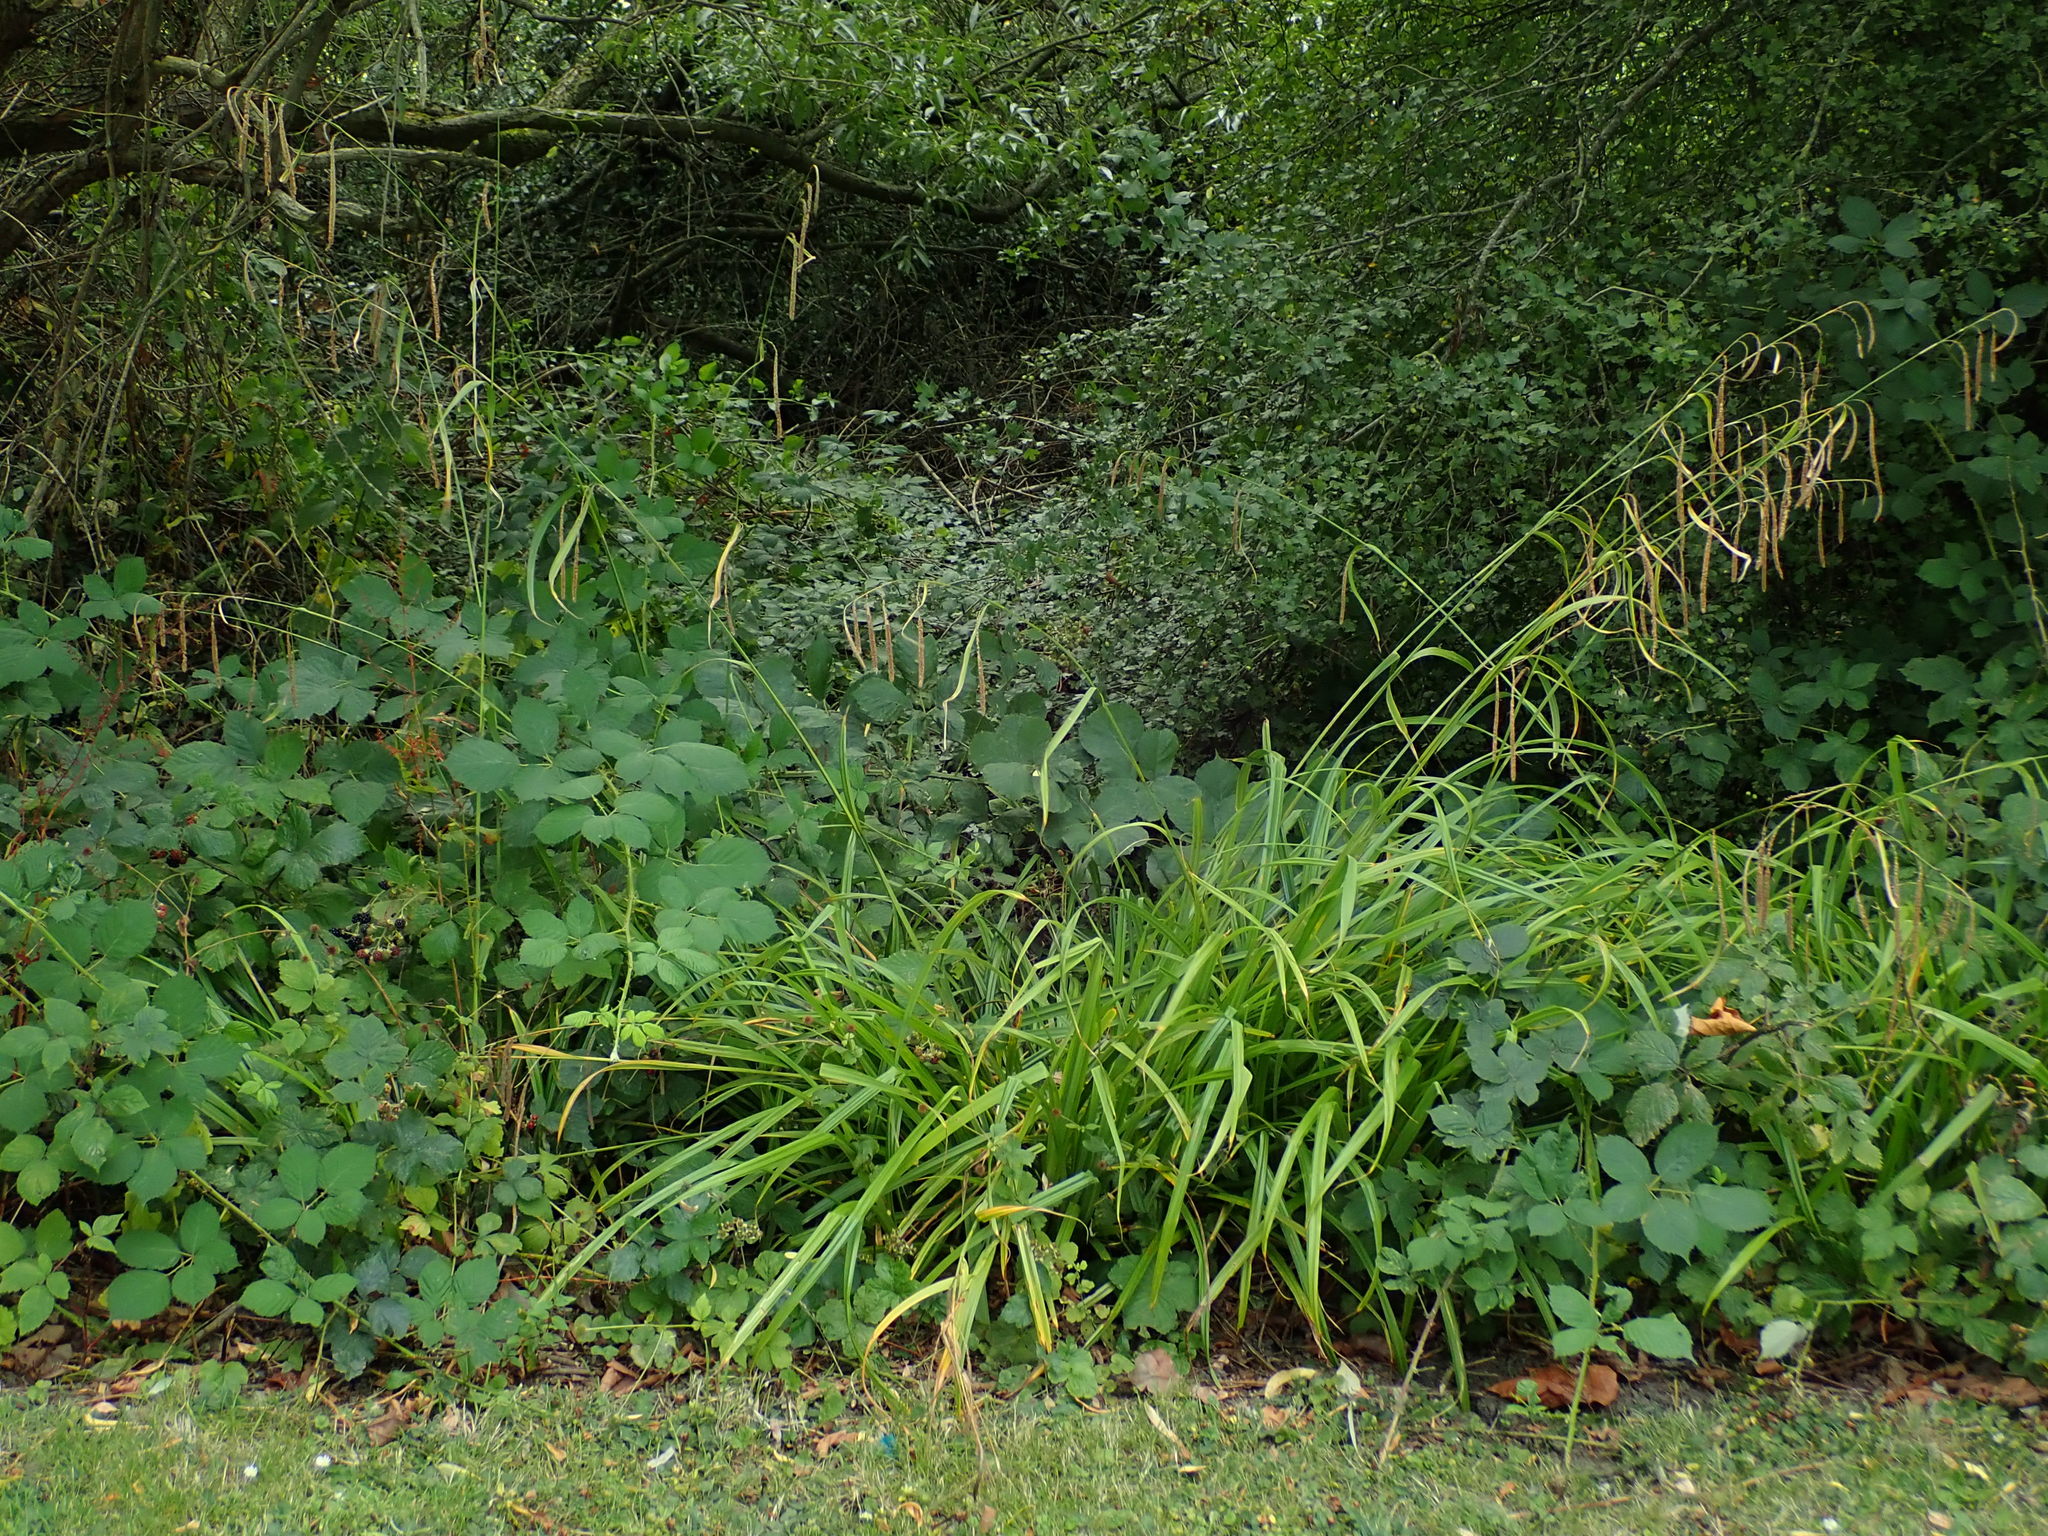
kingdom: Plantae
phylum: Tracheophyta
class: Liliopsida
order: Poales
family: Cyperaceae
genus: Carex
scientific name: Carex pendula
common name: Pendulous sedge
